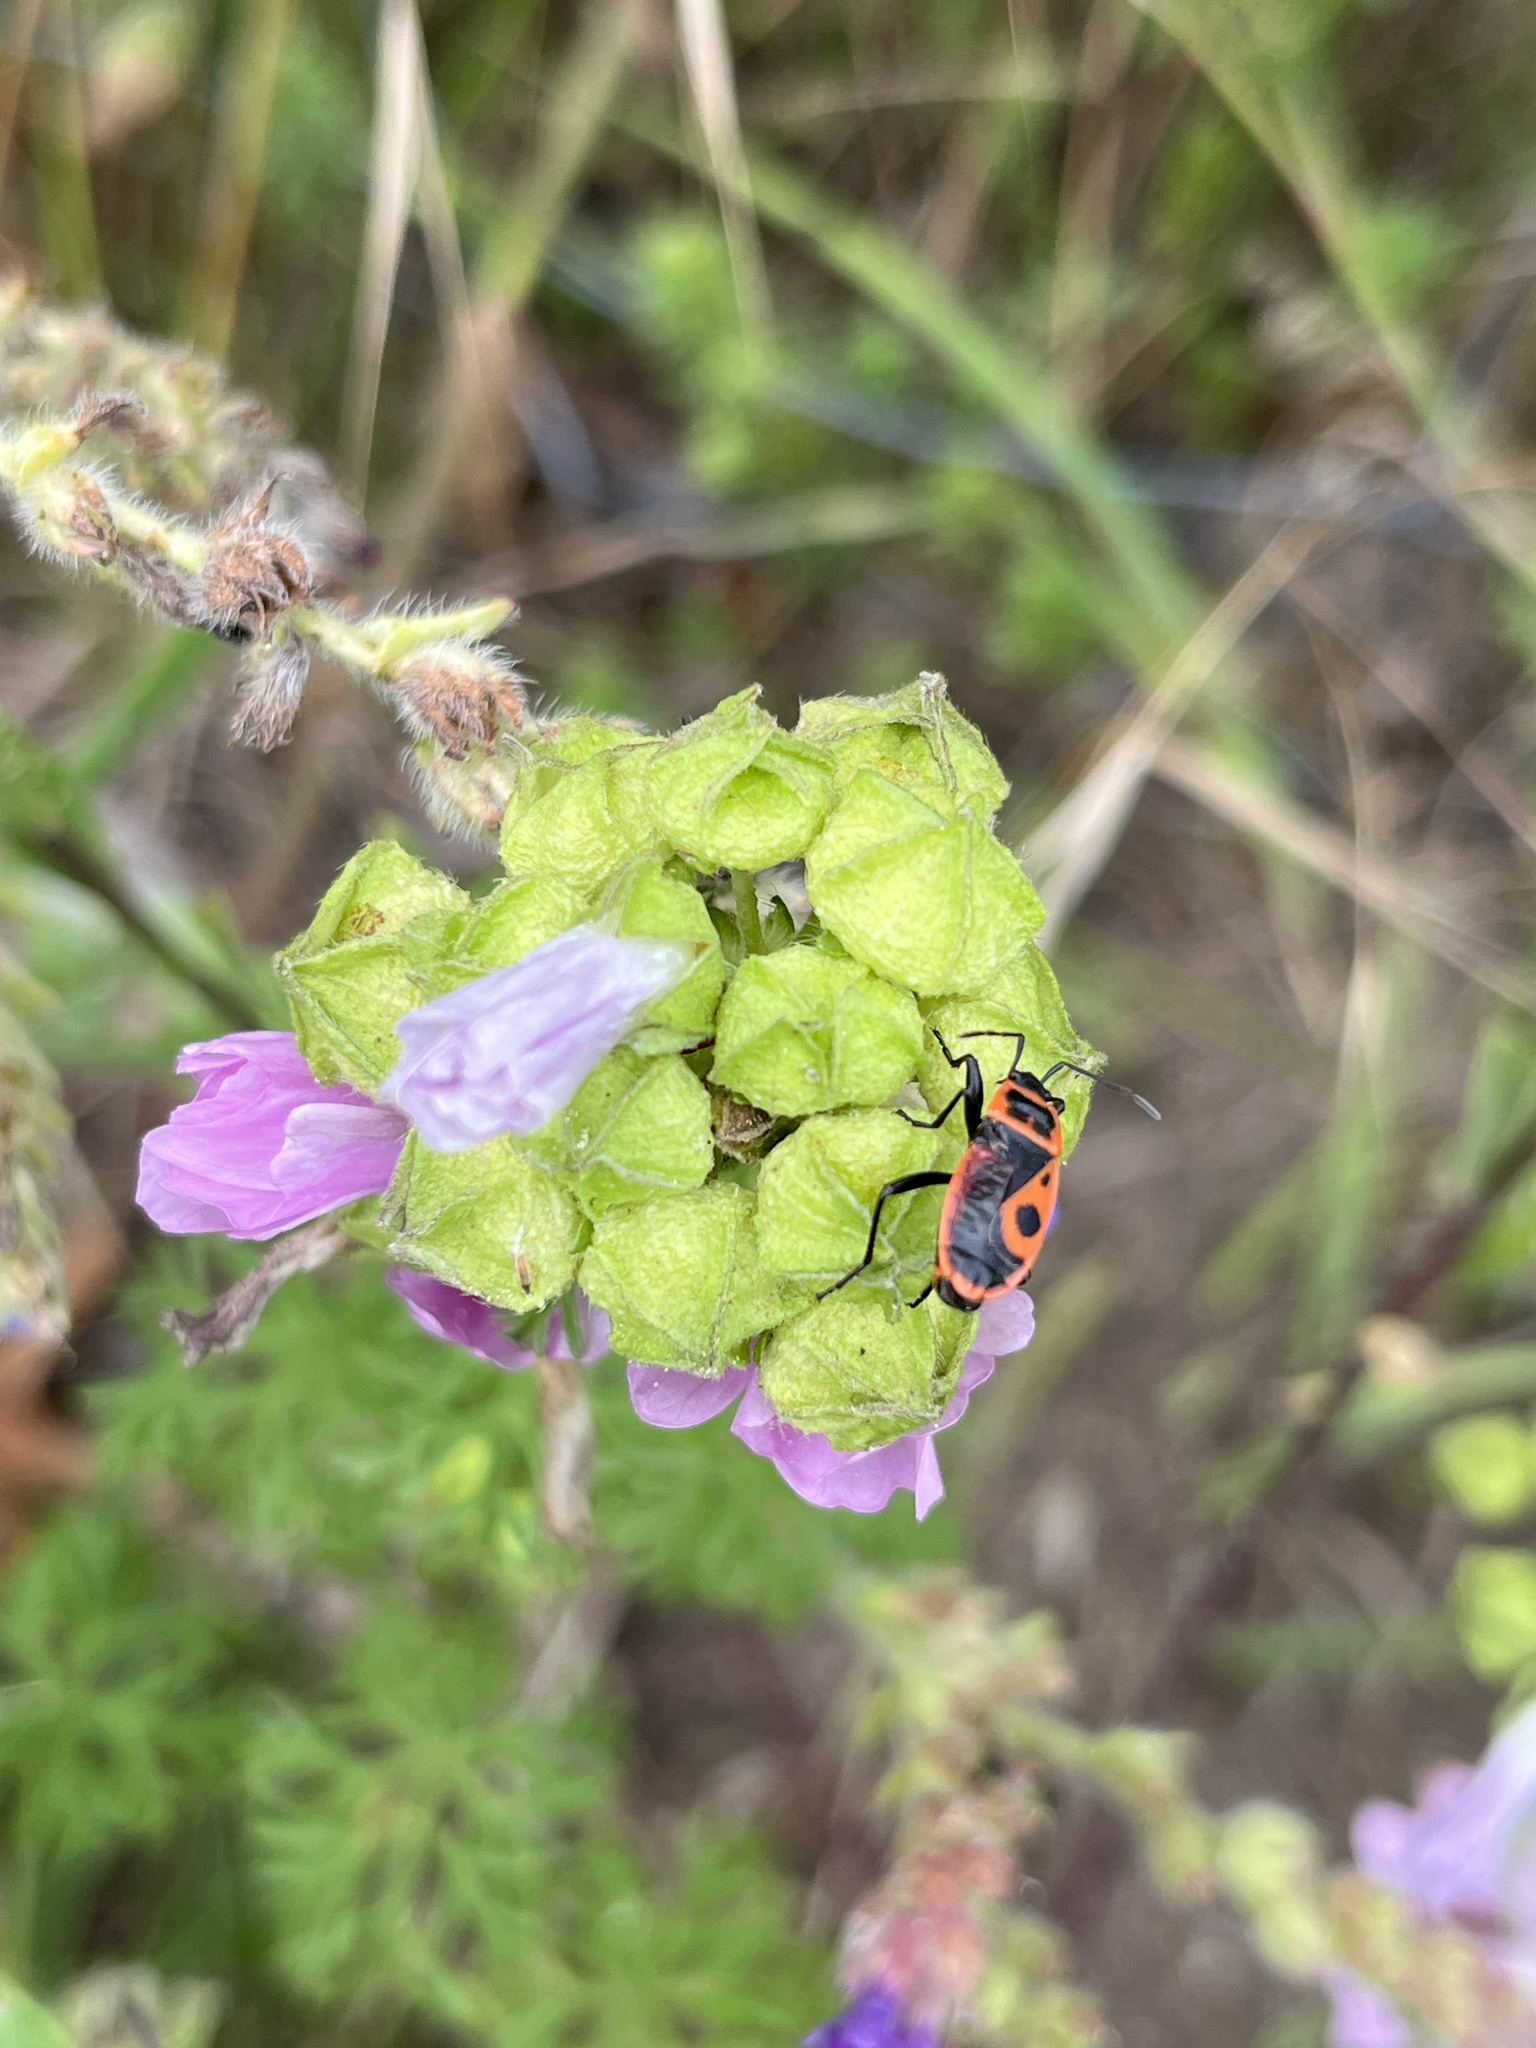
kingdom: Animalia
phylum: Arthropoda
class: Insecta
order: Hemiptera
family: Pyrrhocoridae
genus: Pyrrhocoris
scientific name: Pyrrhocoris apterus
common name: Firebug
